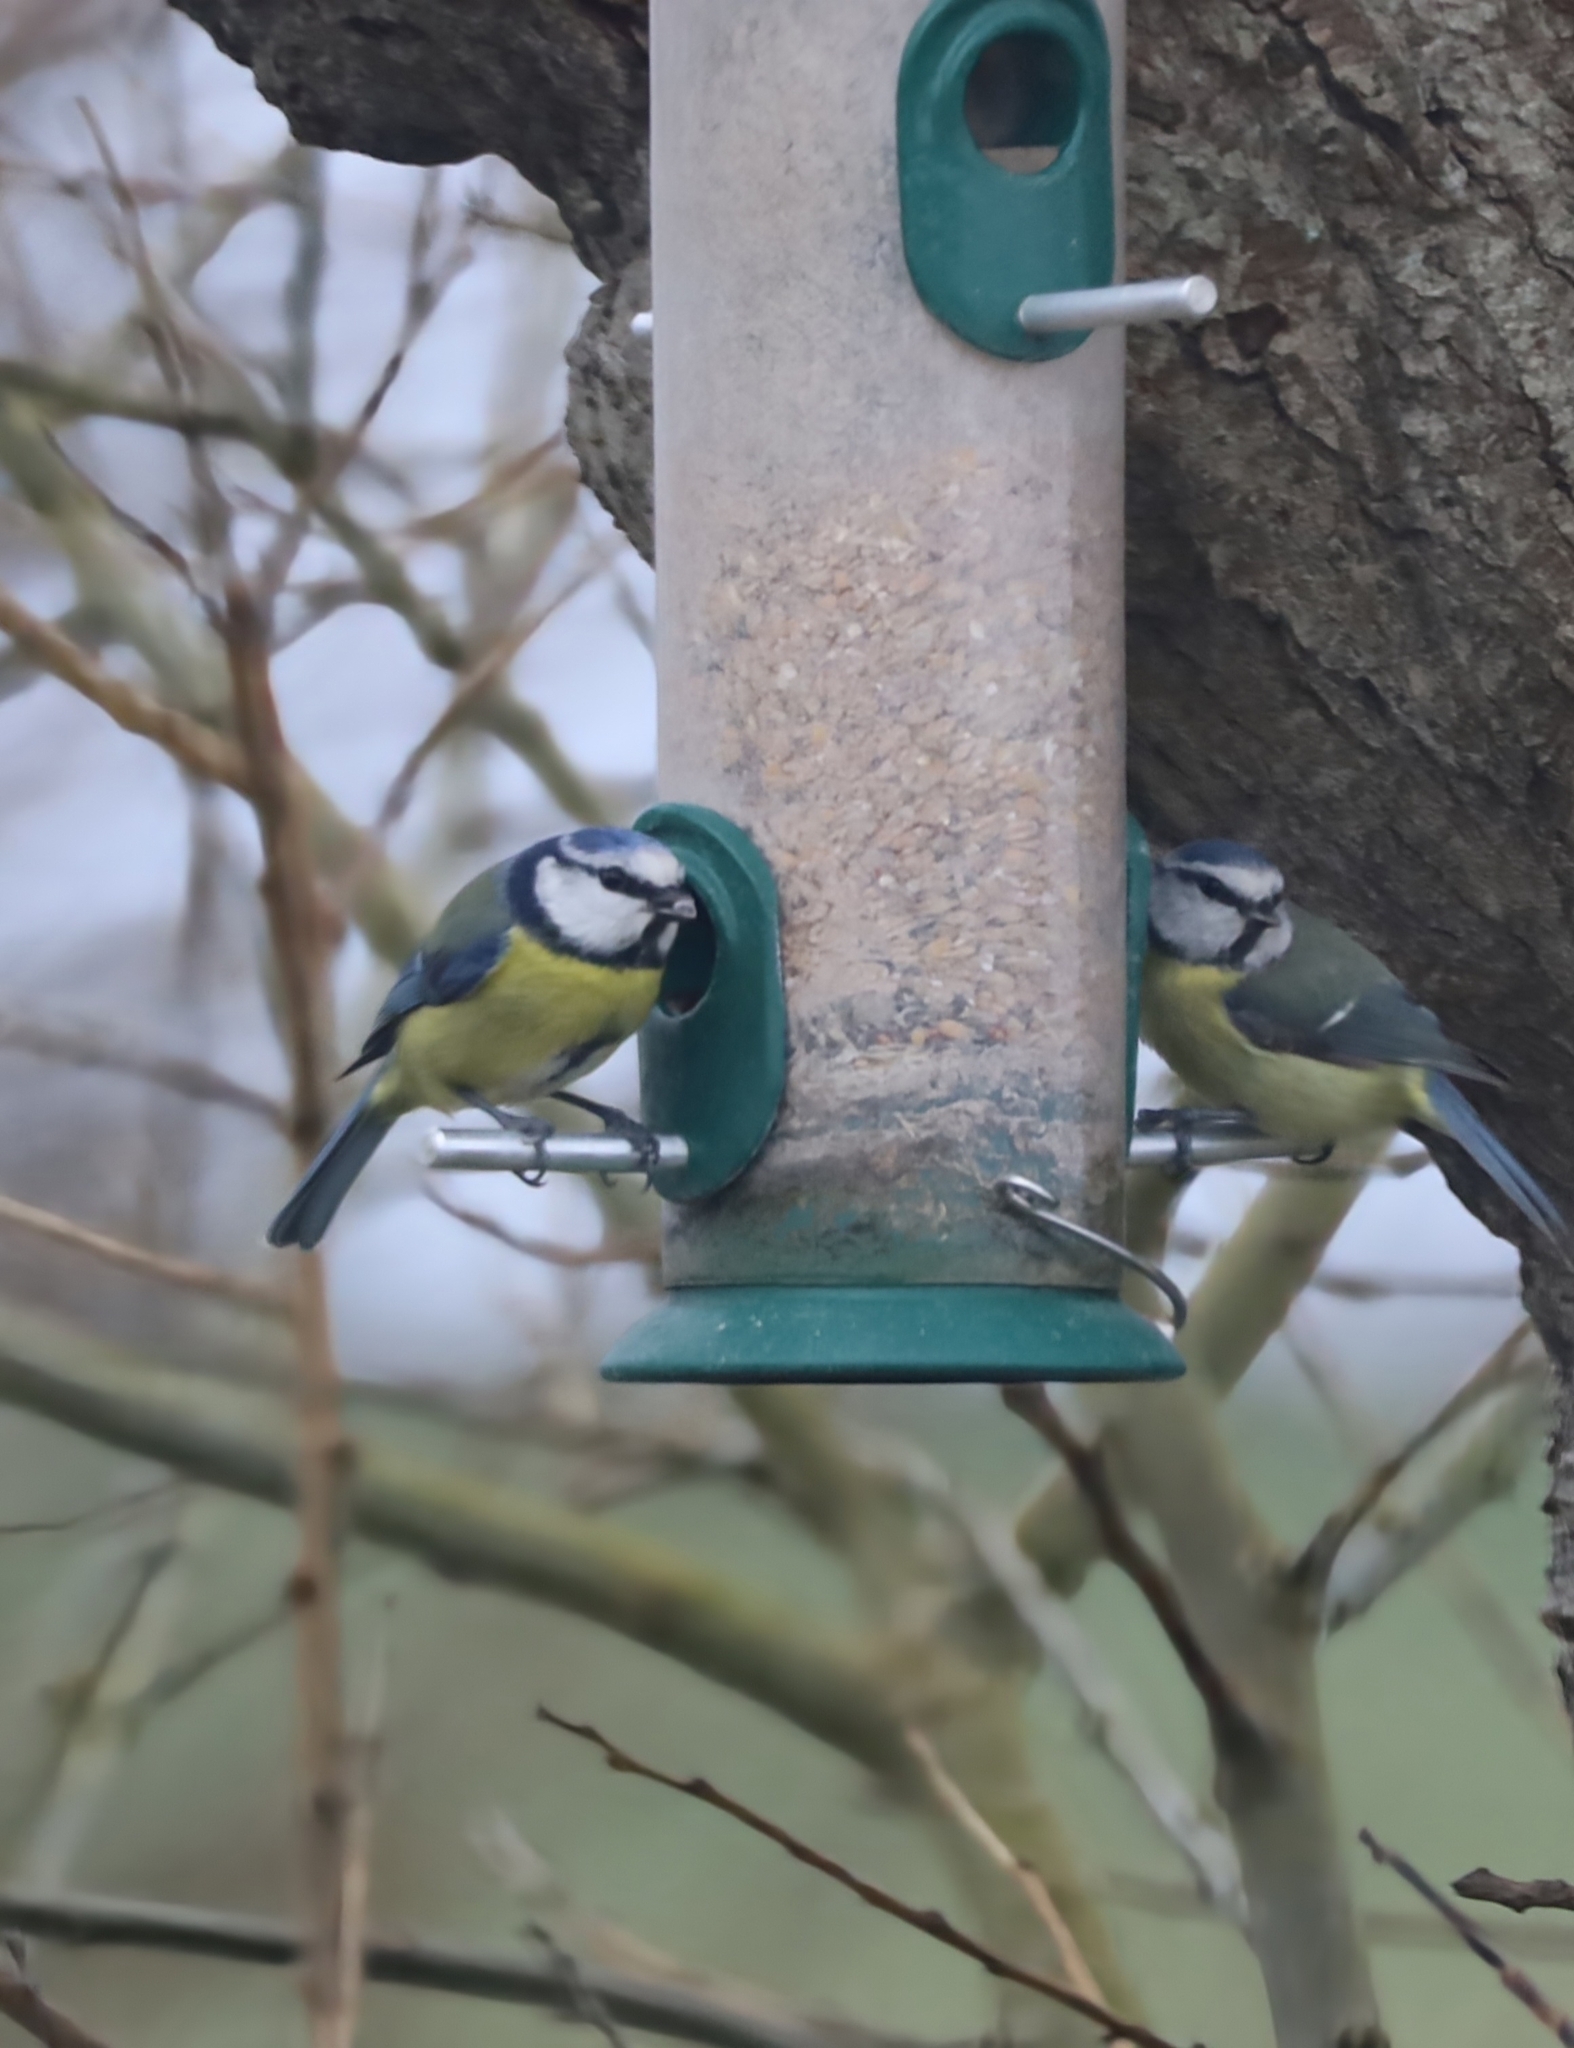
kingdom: Animalia
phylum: Chordata
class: Aves
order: Passeriformes
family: Paridae
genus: Cyanistes
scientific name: Cyanistes caeruleus
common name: Eurasian blue tit
